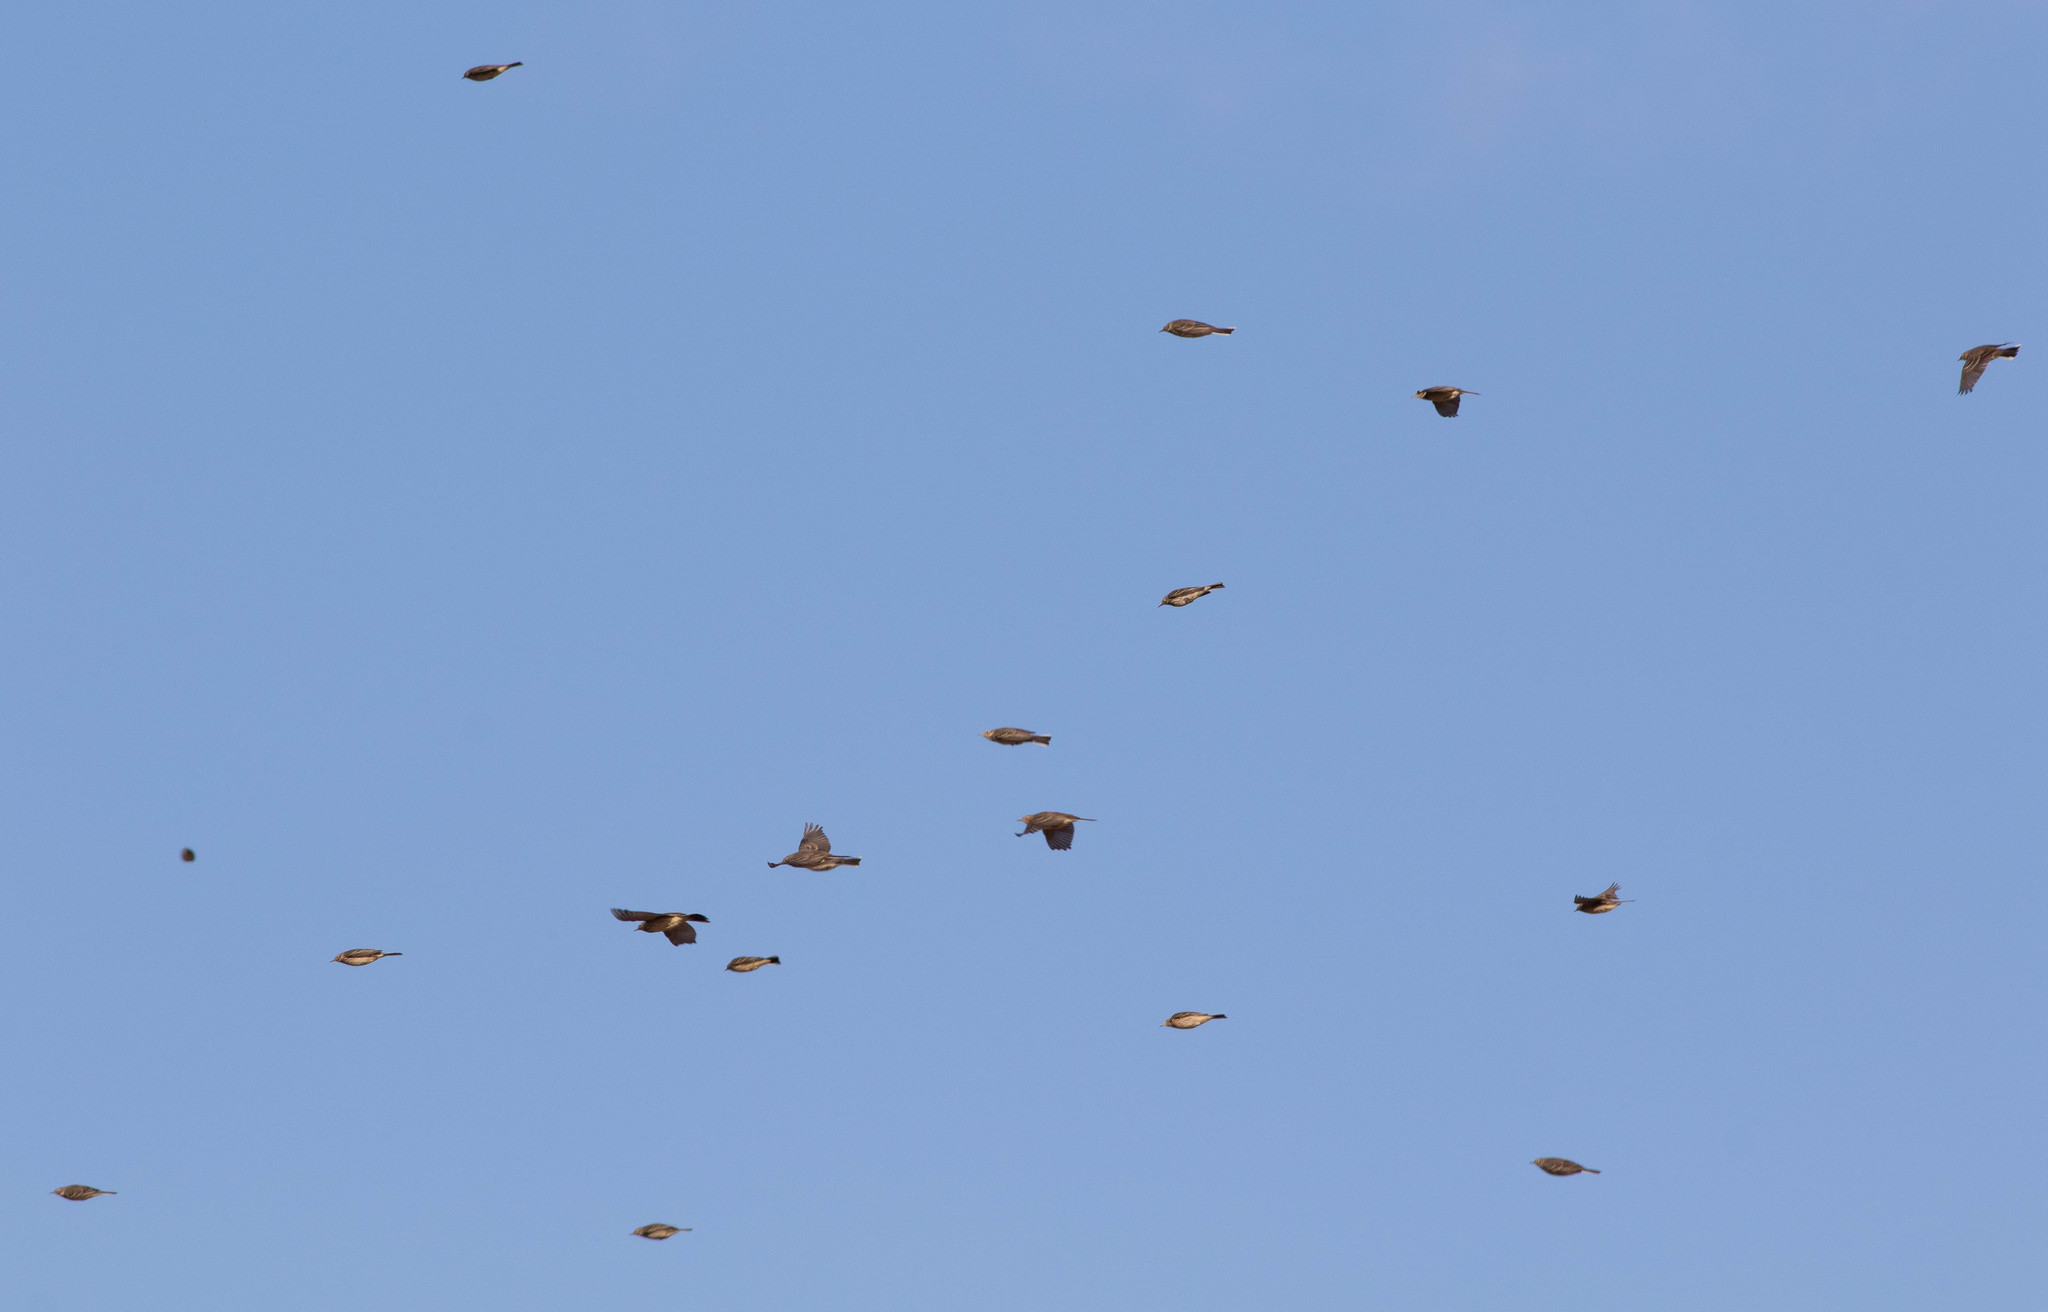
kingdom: Animalia
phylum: Chordata
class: Aves
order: Passeriformes
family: Motacillidae
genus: Anthus
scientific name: Anthus rubescens
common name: Buff-bellied pipit
